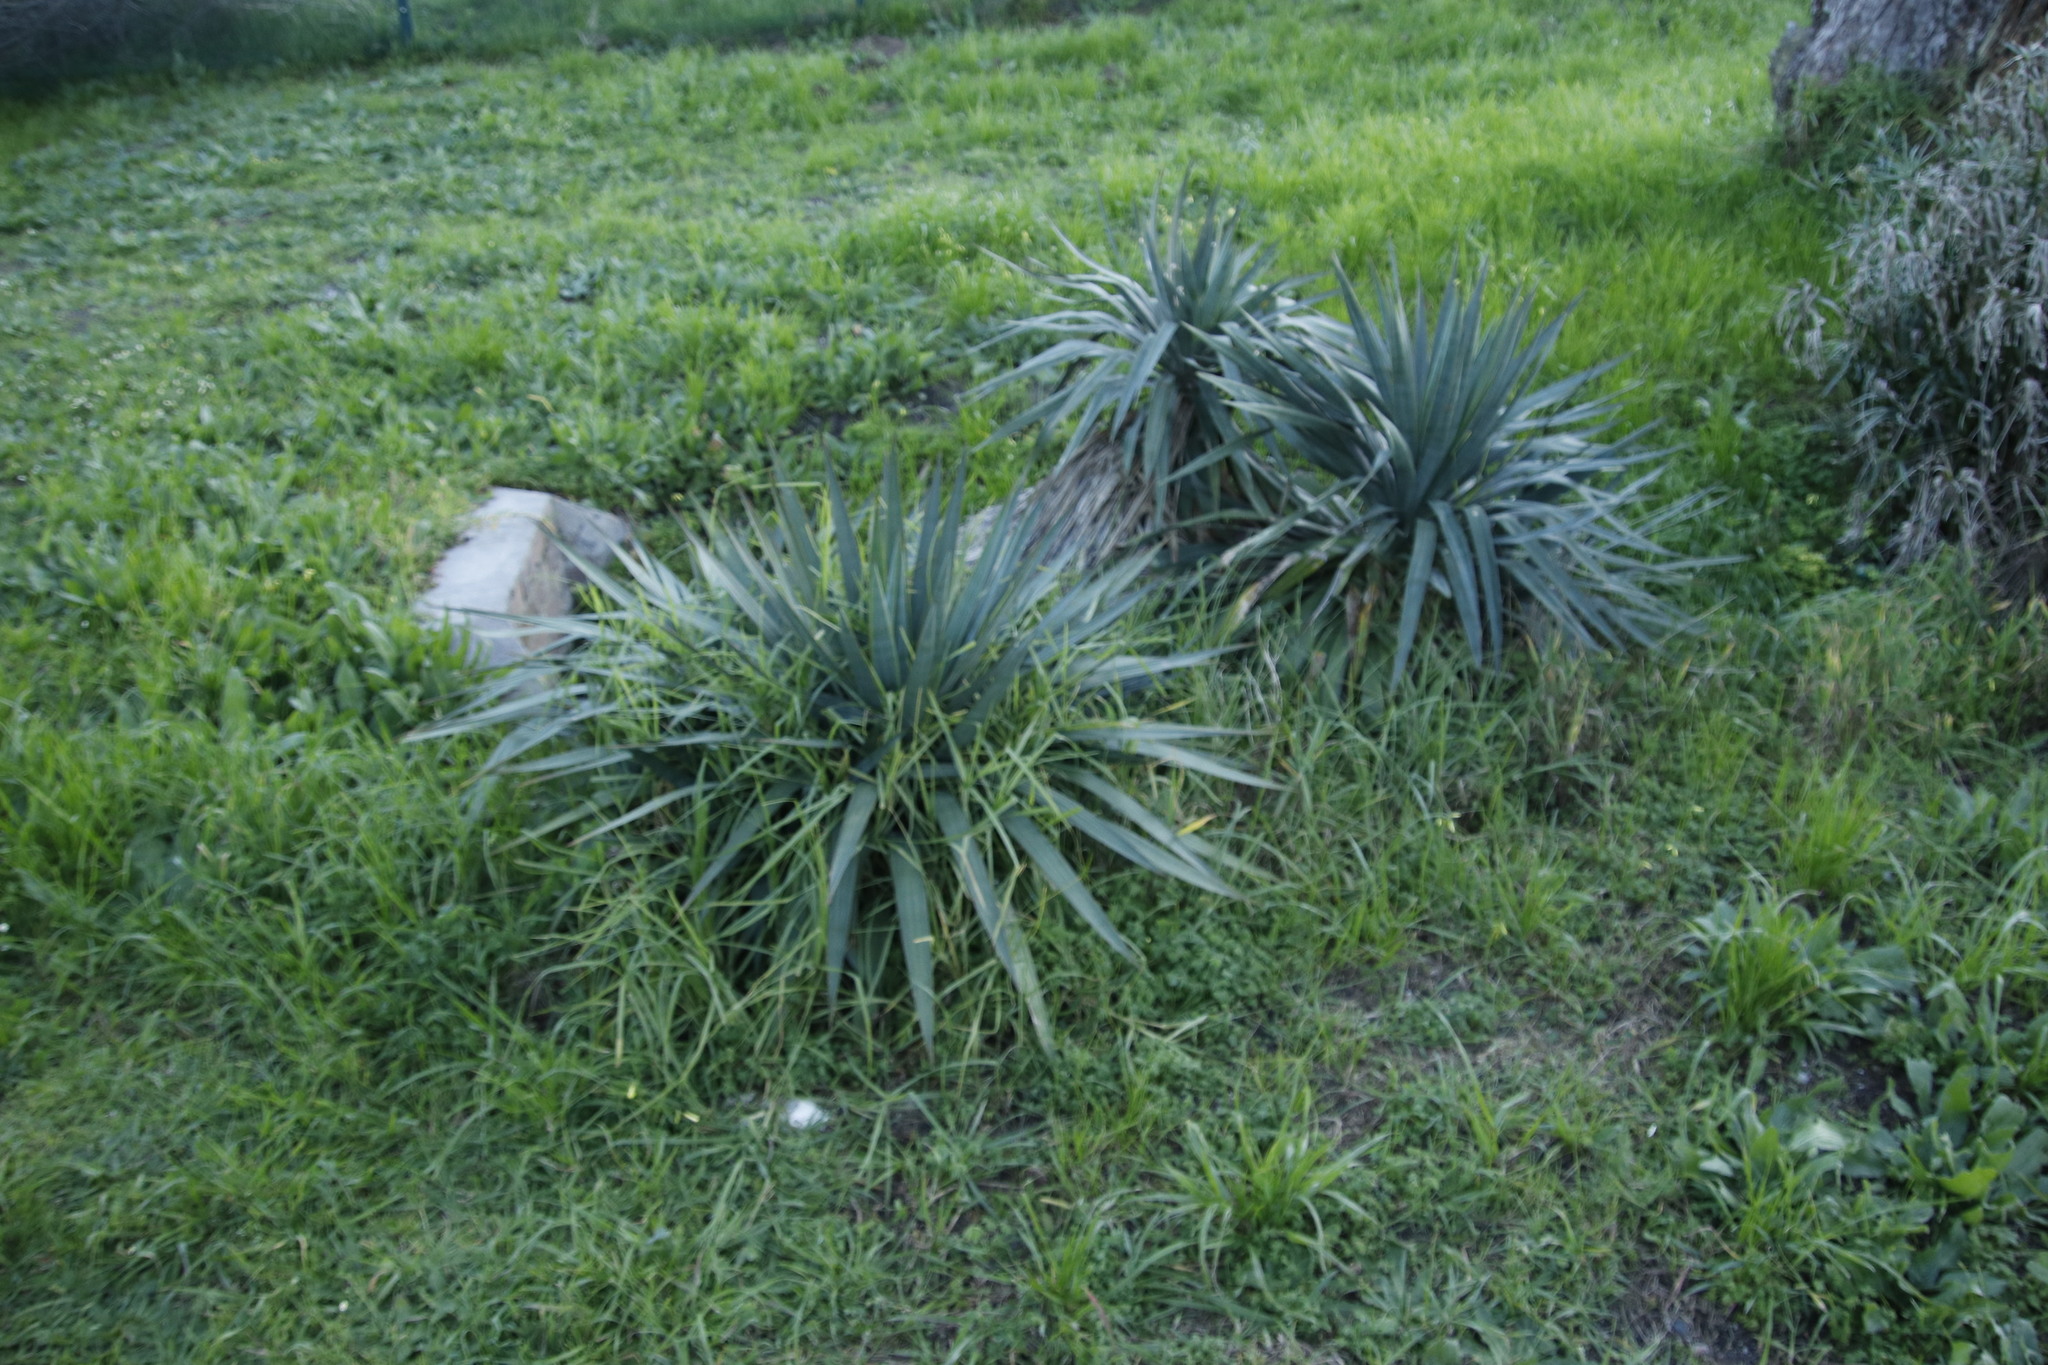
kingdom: Plantae
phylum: Tracheophyta
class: Liliopsida
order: Asparagales
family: Asparagaceae
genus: Yucca
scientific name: Yucca gloriosa
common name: Spanish-dagger
